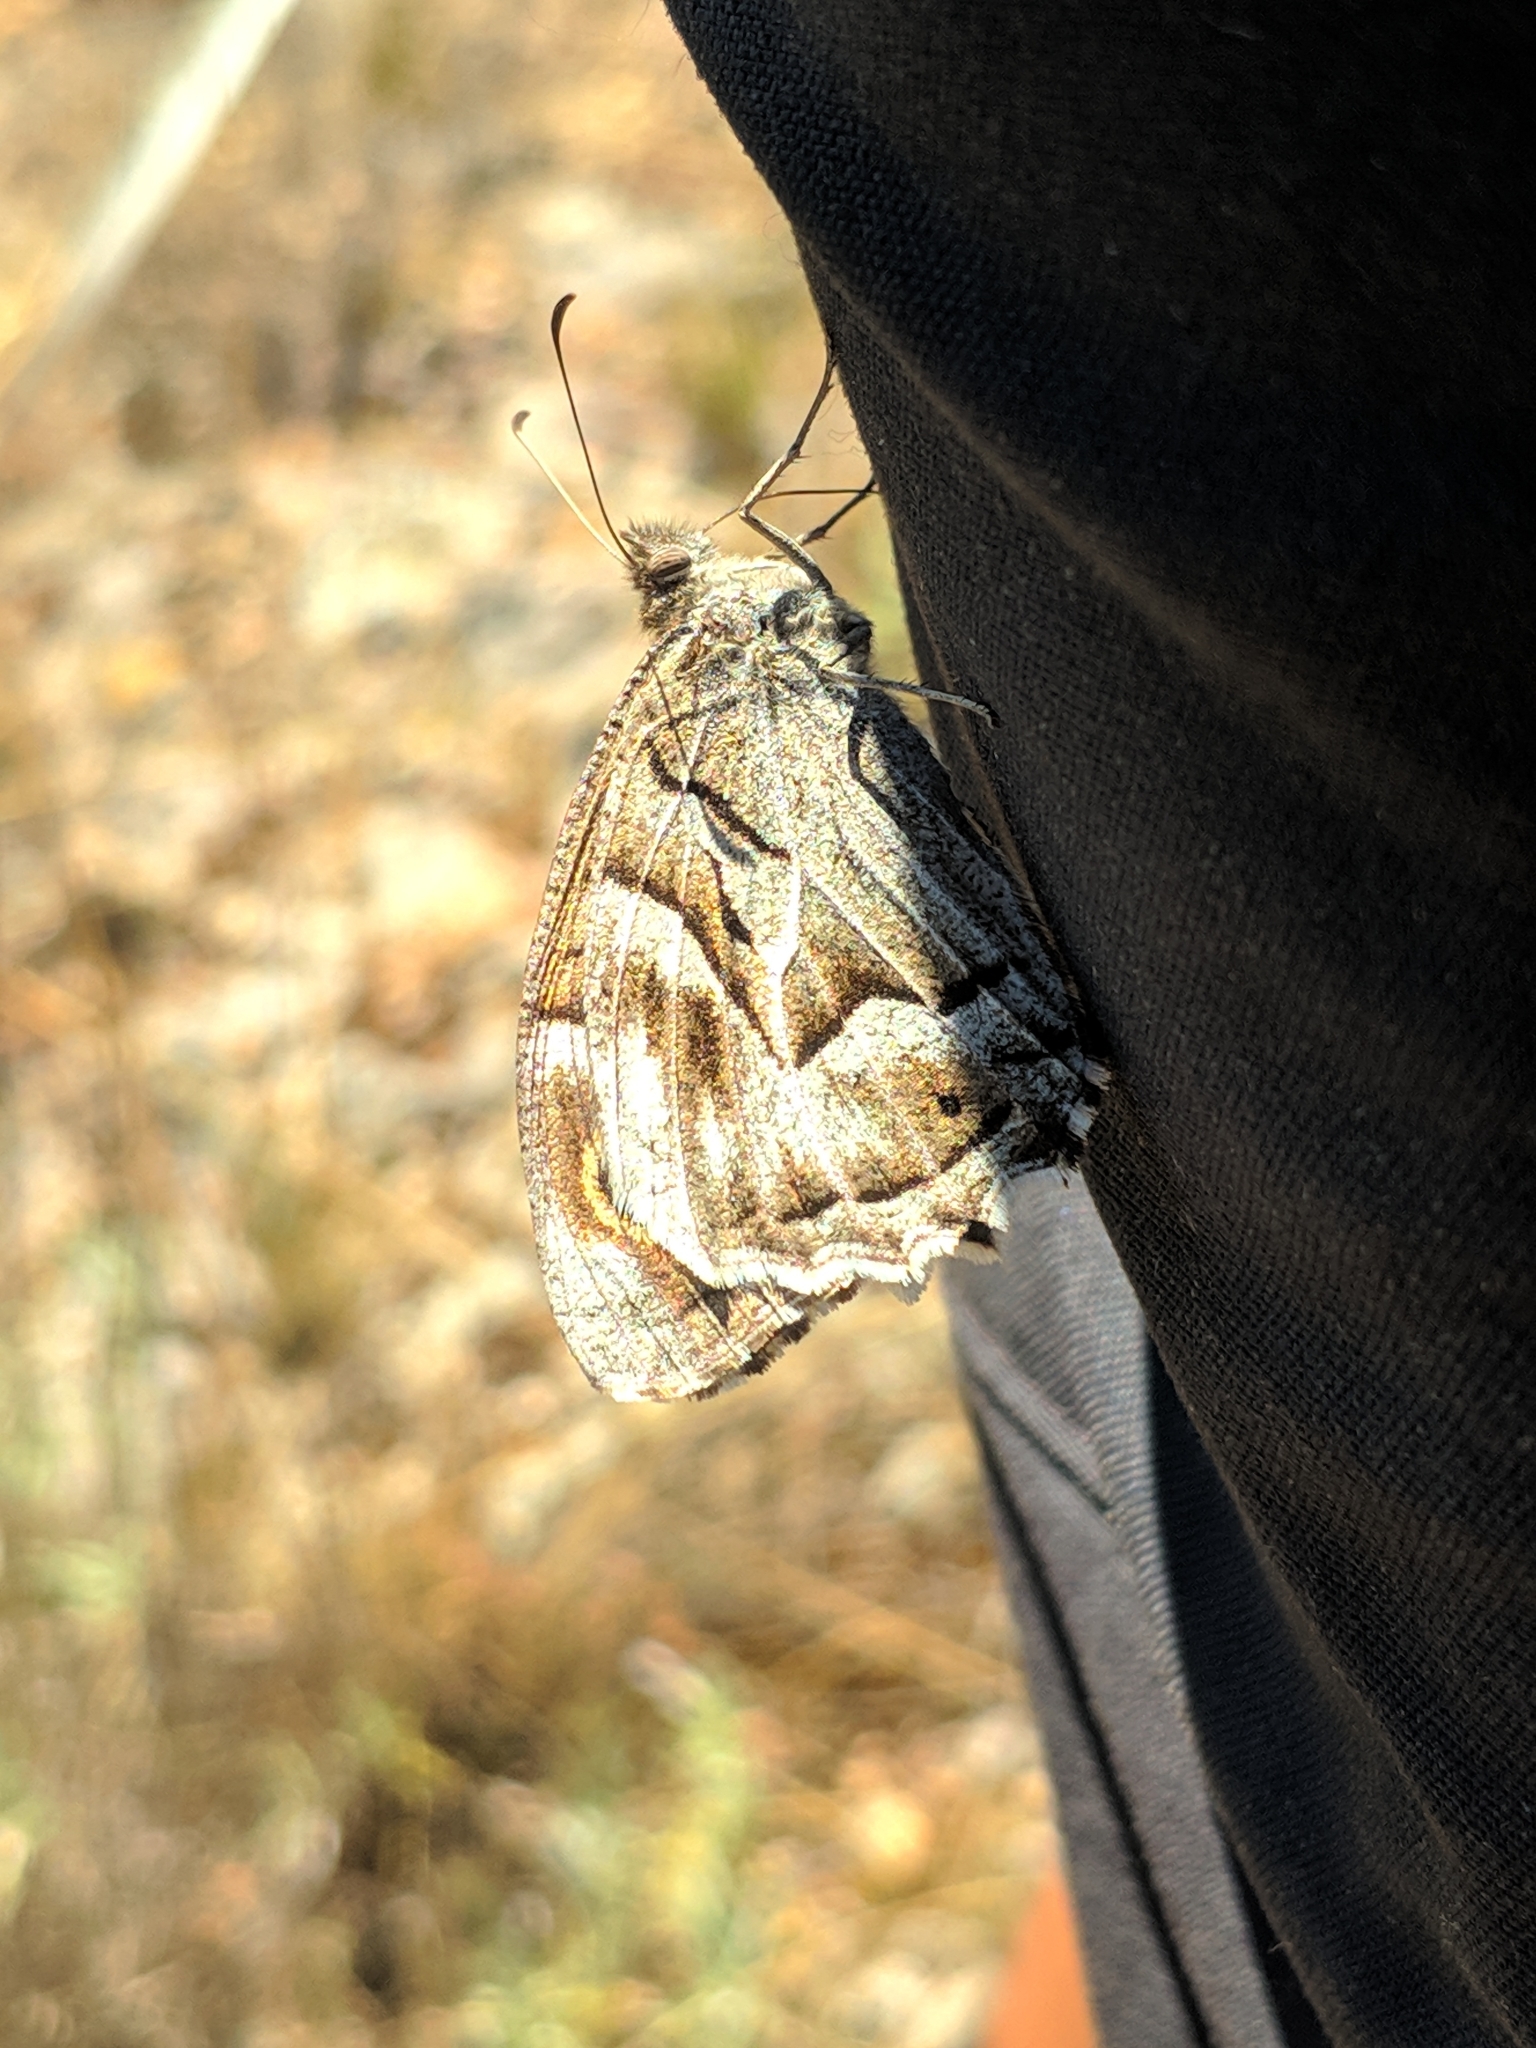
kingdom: Animalia
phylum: Arthropoda
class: Insecta
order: Lepidoptera
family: Nymphalidae
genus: Hipparchia
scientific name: Hipparchia fidia
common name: Striped grayling
